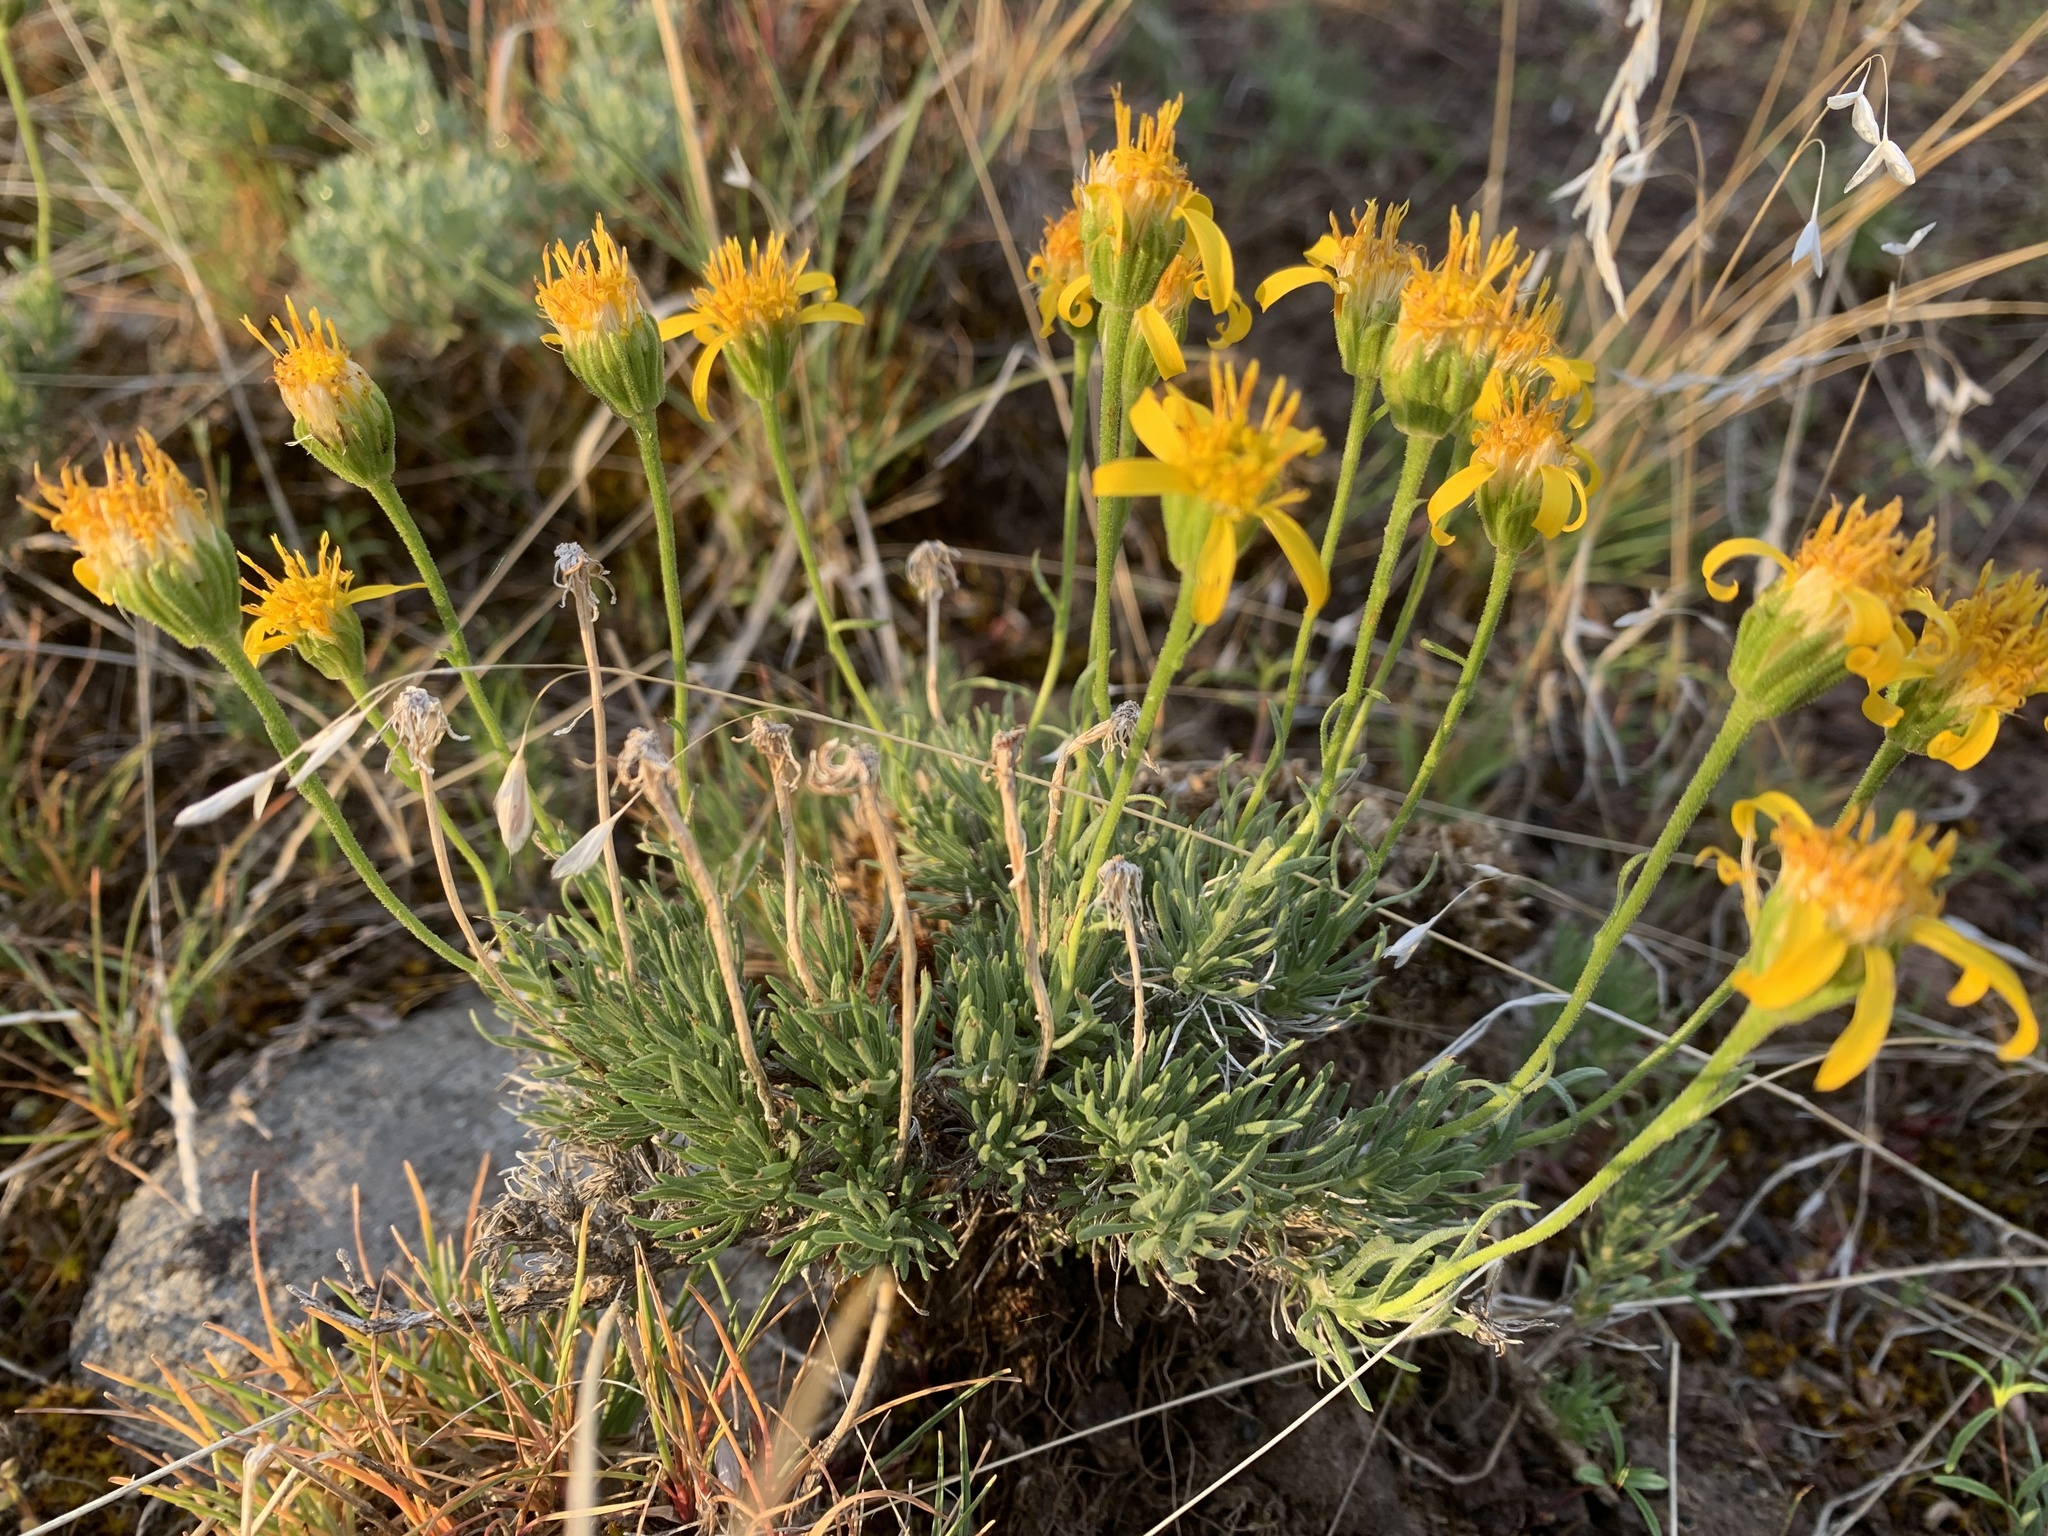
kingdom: Plantae
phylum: Tracheophyta
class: Magnoliopsida
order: Asterales
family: Asteraceae
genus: Nestotus
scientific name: Nestotus stenophyllus
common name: Narrow-leaf mock goldenweed
